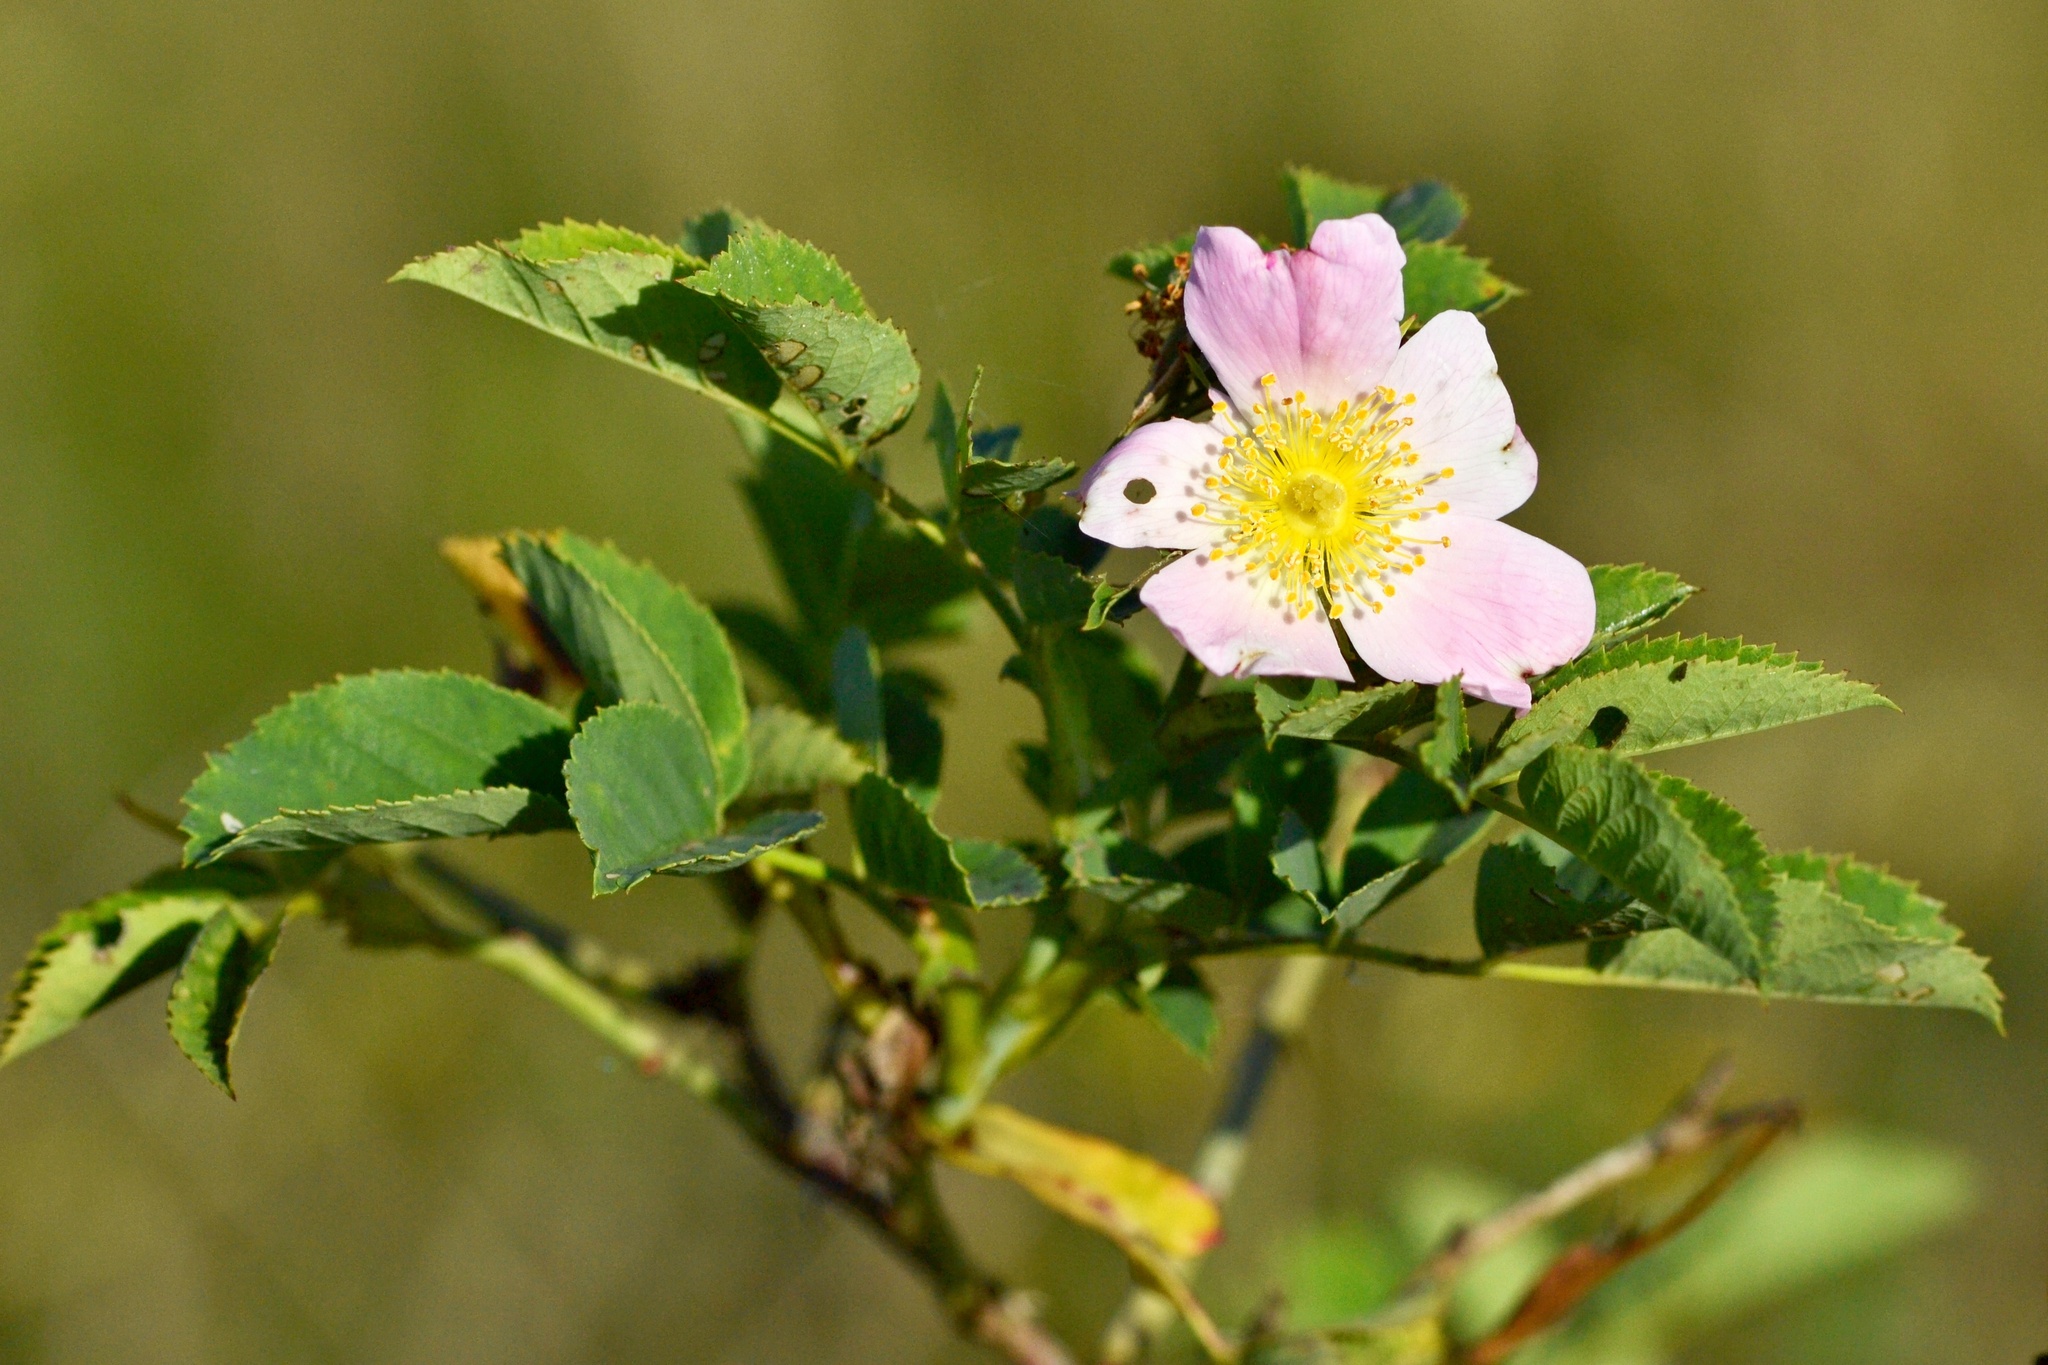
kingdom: Plantae
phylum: Tracheophyta
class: Magnoliopsida
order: Rosales
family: Rosaceae
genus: Rosa
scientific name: Rosa subcanina
